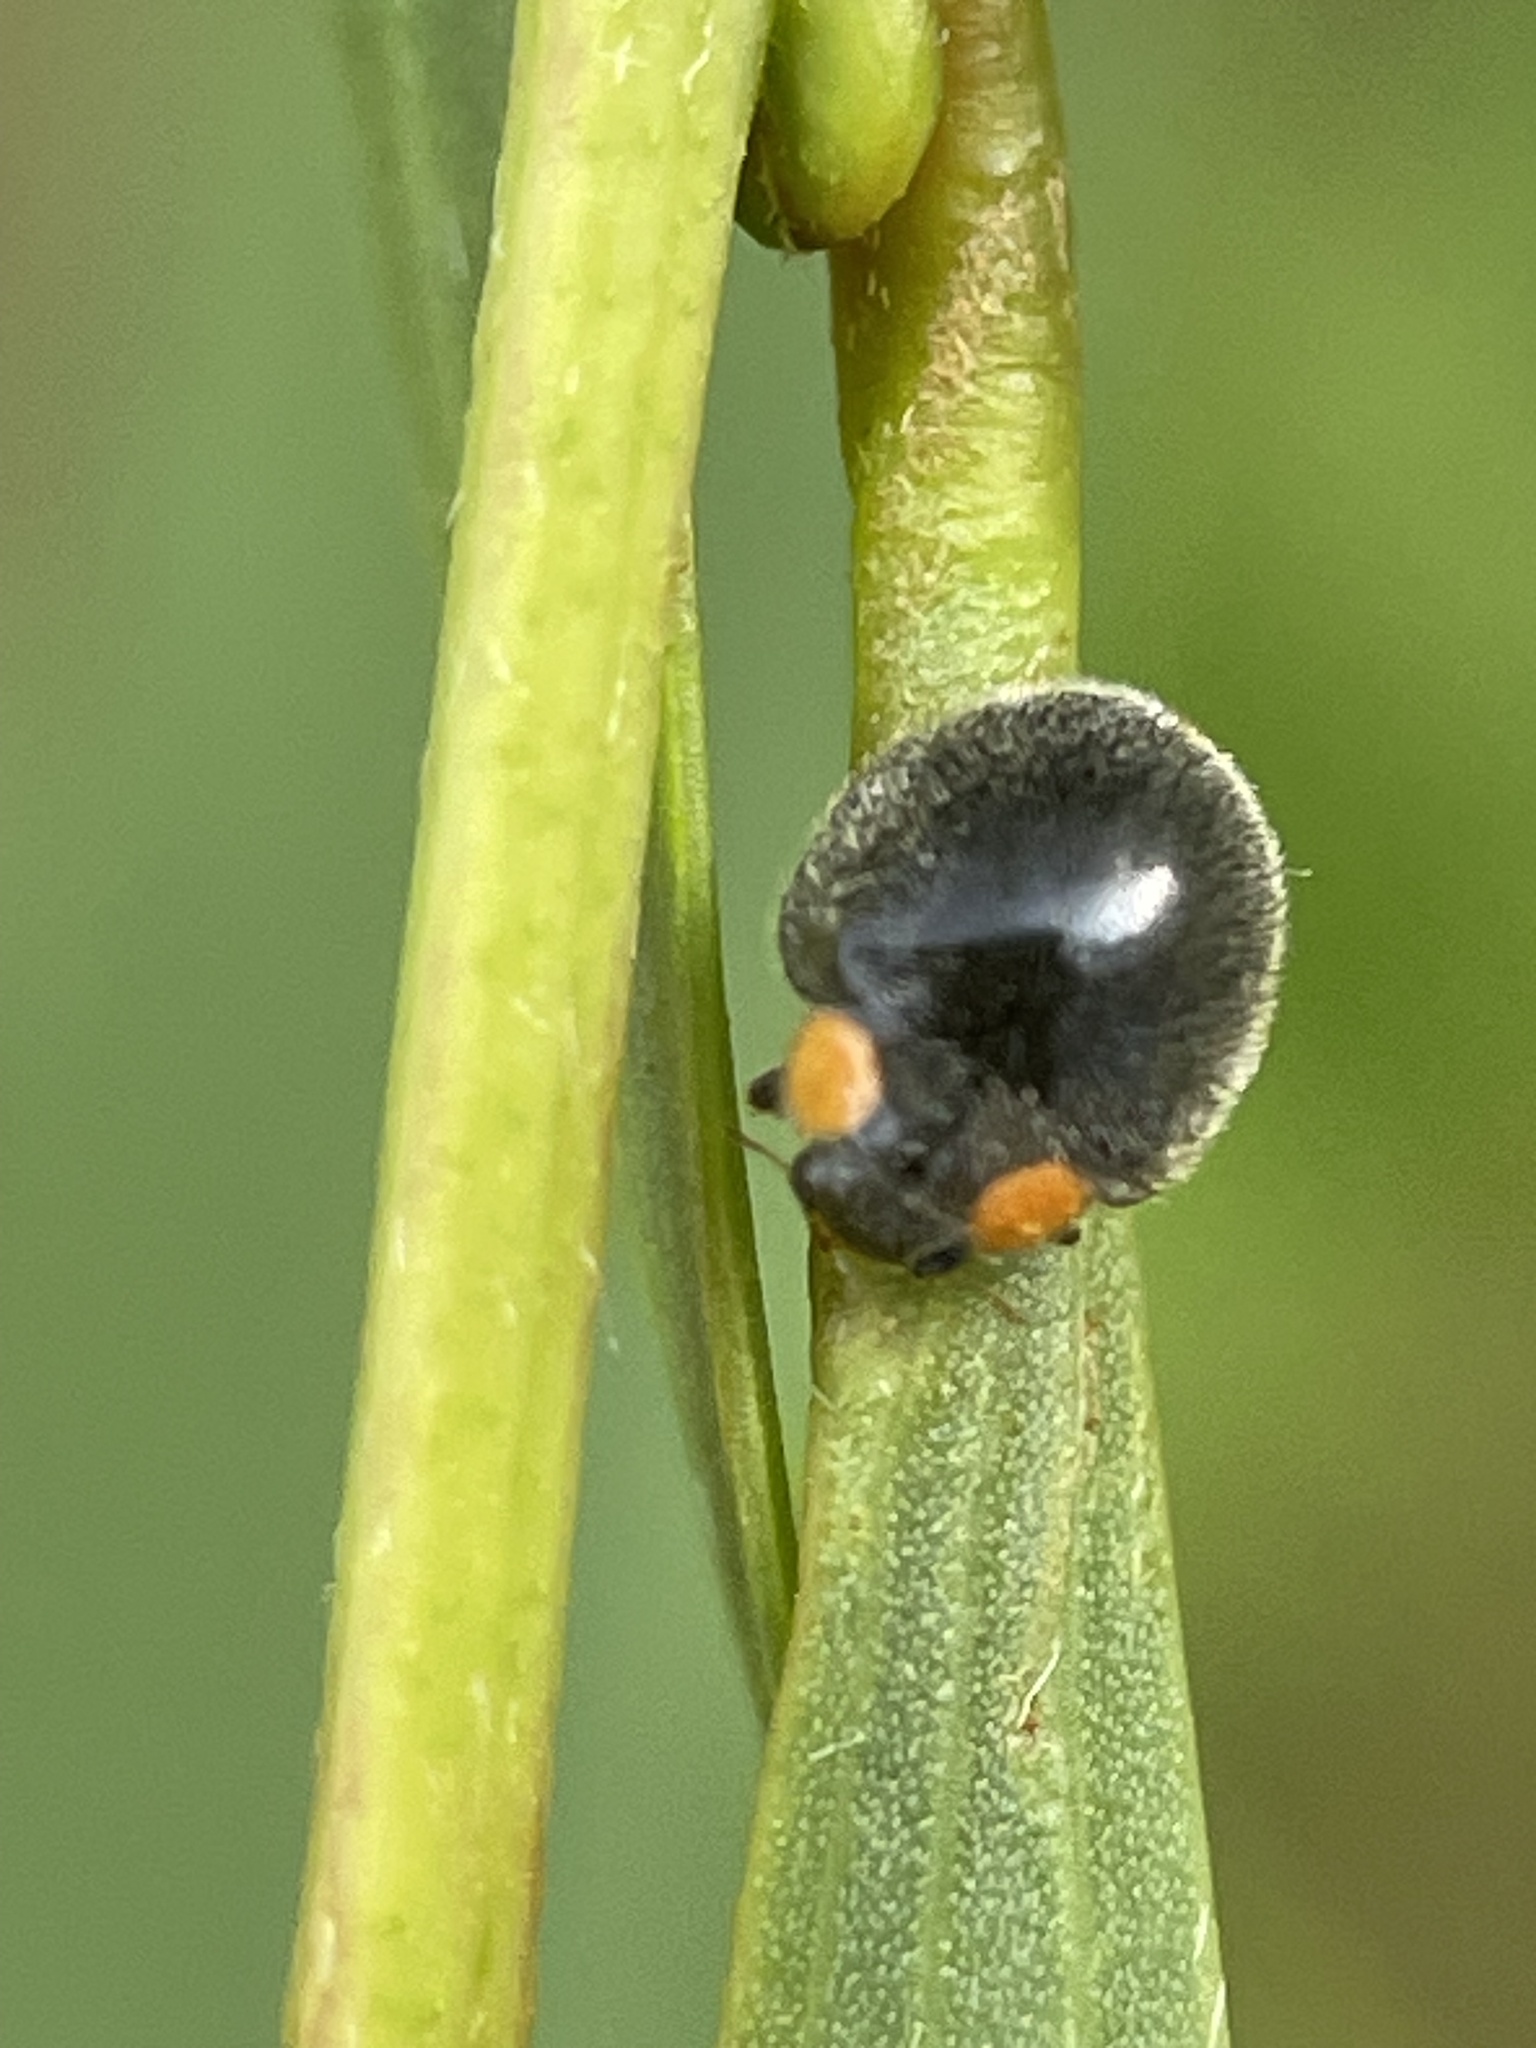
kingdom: Animalia
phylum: Arthropoda
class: Insecta
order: Coleoptera
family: Coccinellidae
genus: Scymnodes
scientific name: Scymnodes lividigaster
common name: Yellowshouldered lady beetle
